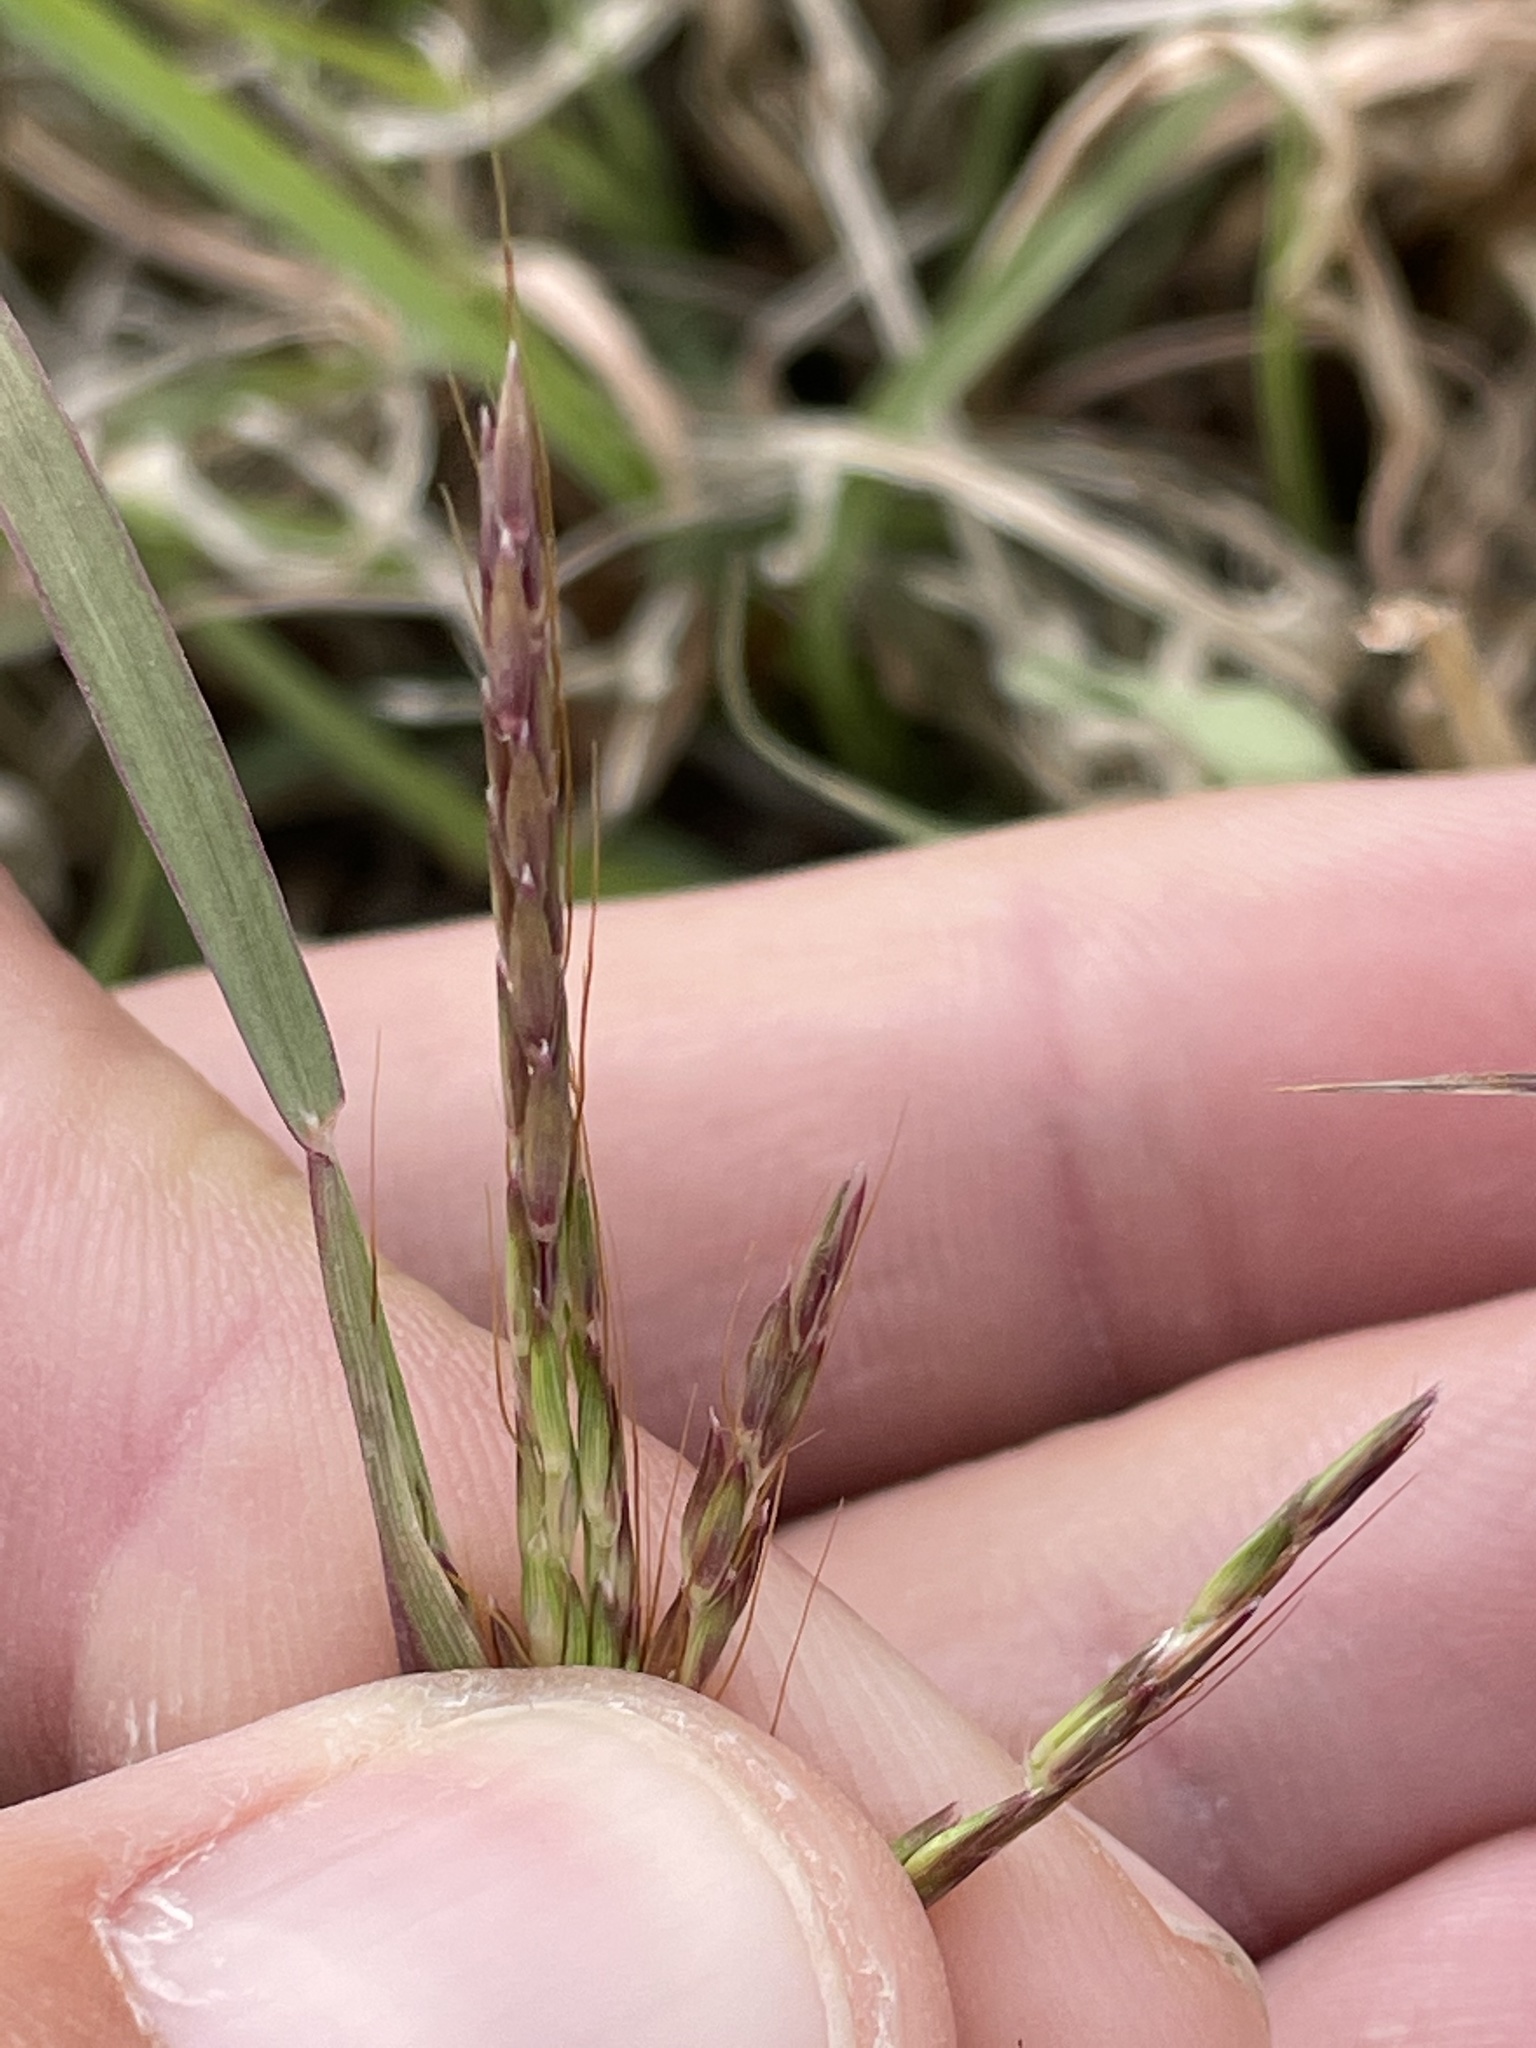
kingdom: Plantae
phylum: Tracheophyta
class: Liliopsida
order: Poales
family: Poaceae
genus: Bothriochloa
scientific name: Bothriochloa ischaemum
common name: Yellow bluestem
